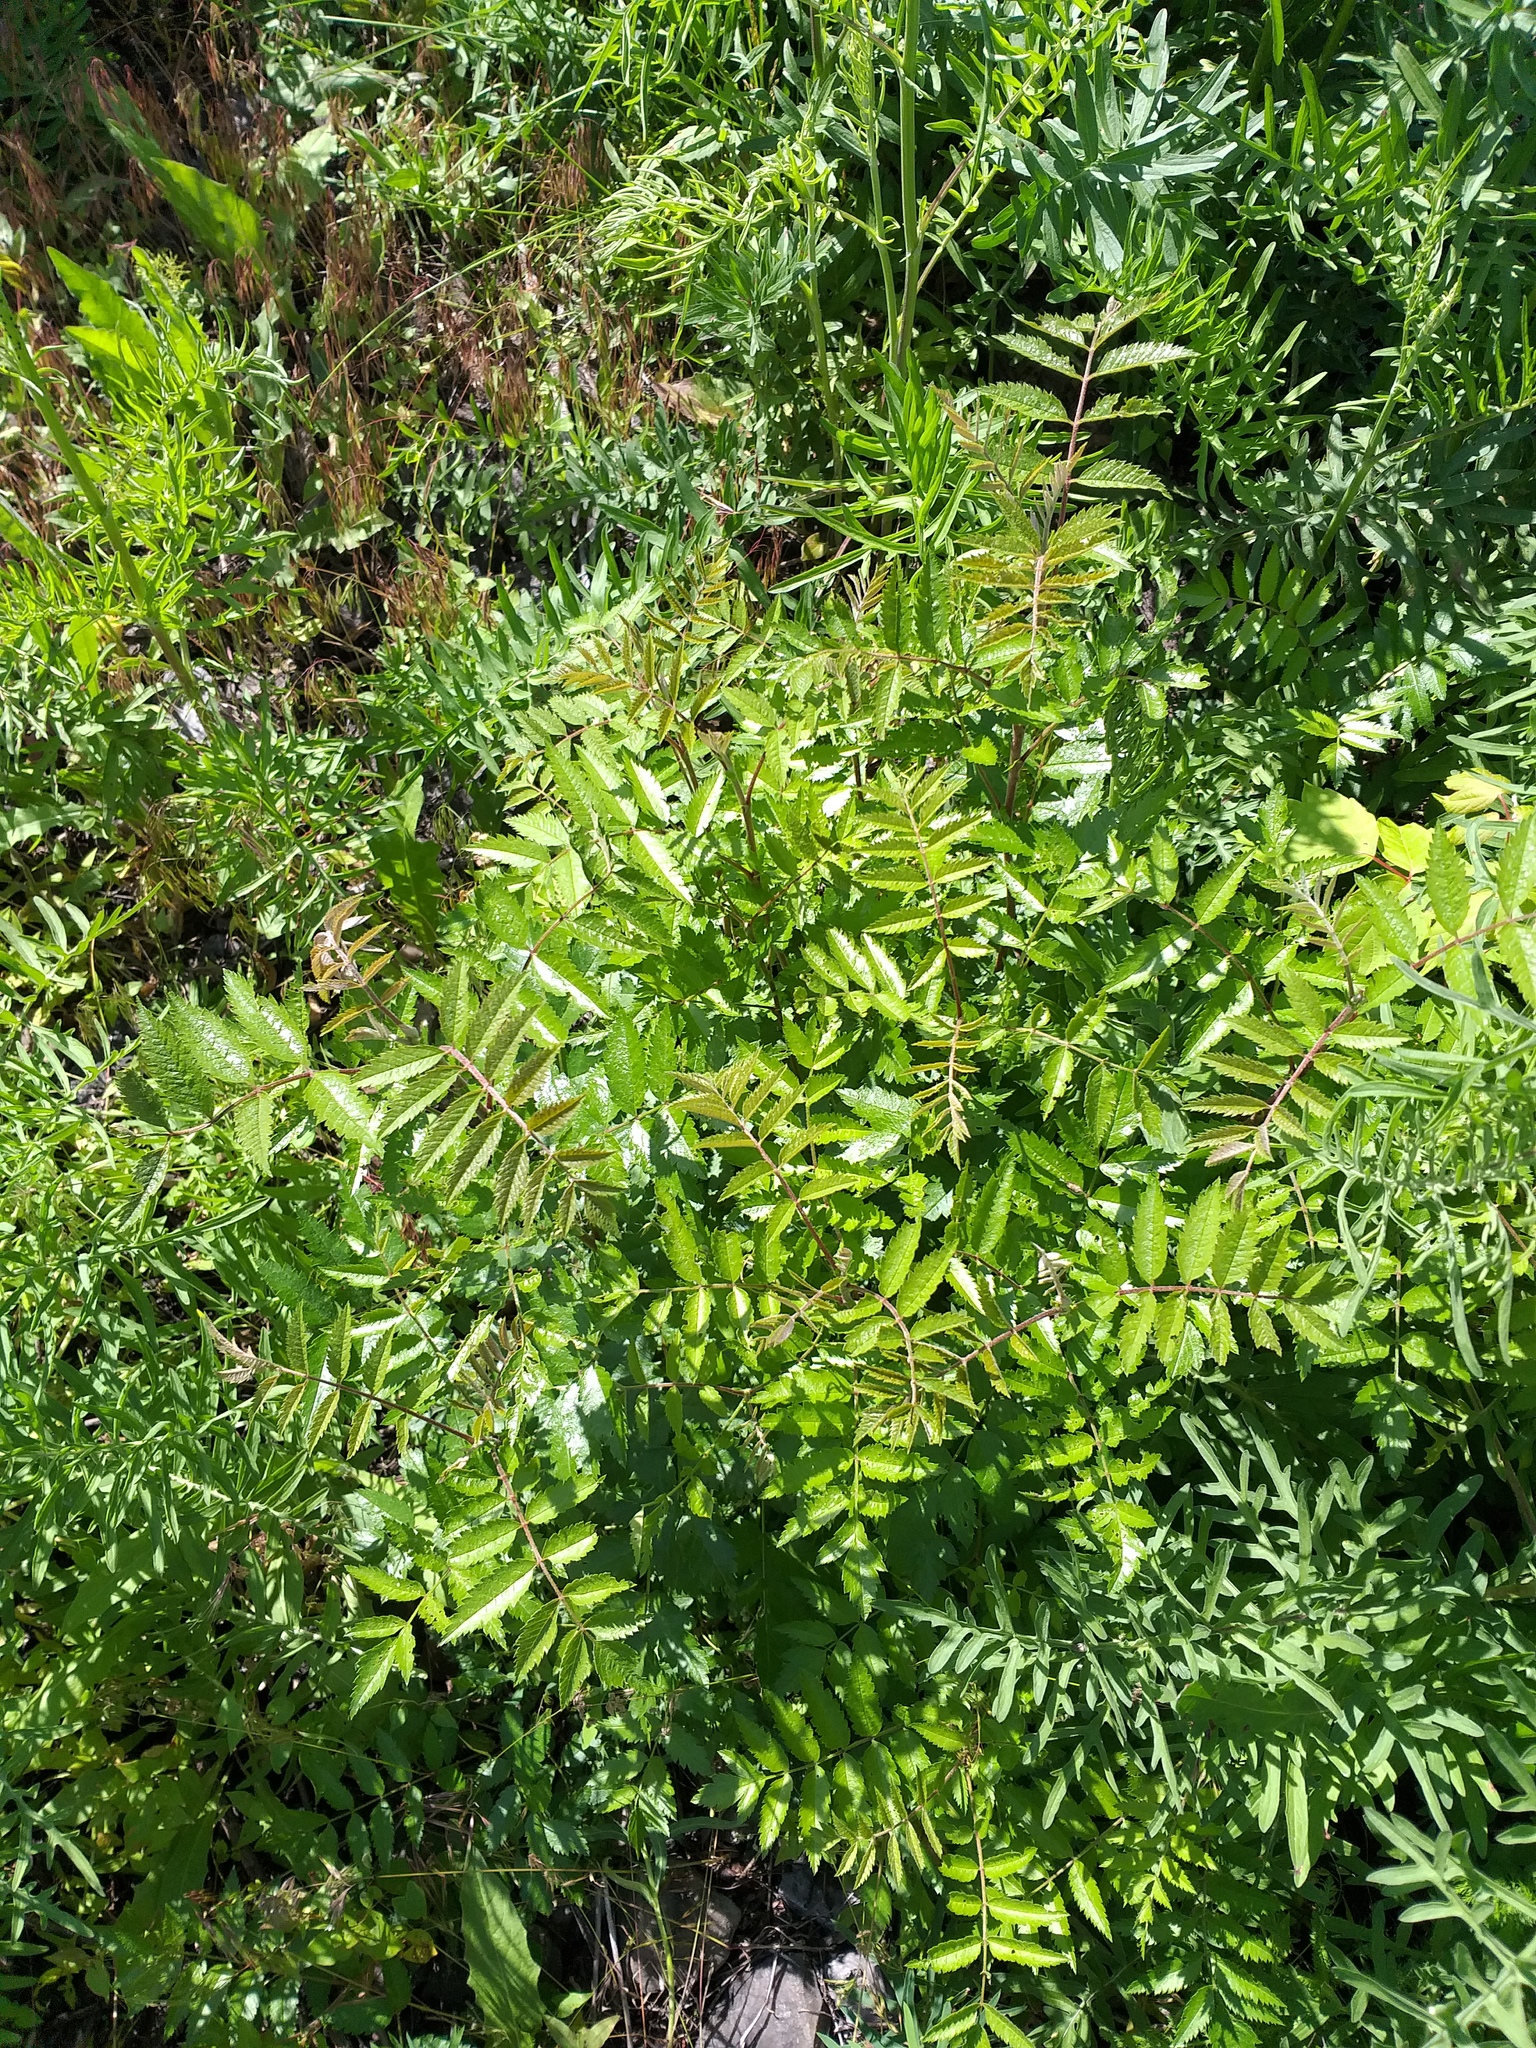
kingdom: Plantae
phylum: Tracheophyta
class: Magnoliopsida
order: Rosales
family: Rosaceae
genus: Sorbus
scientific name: Sorbus aucuparia
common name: Rowan
